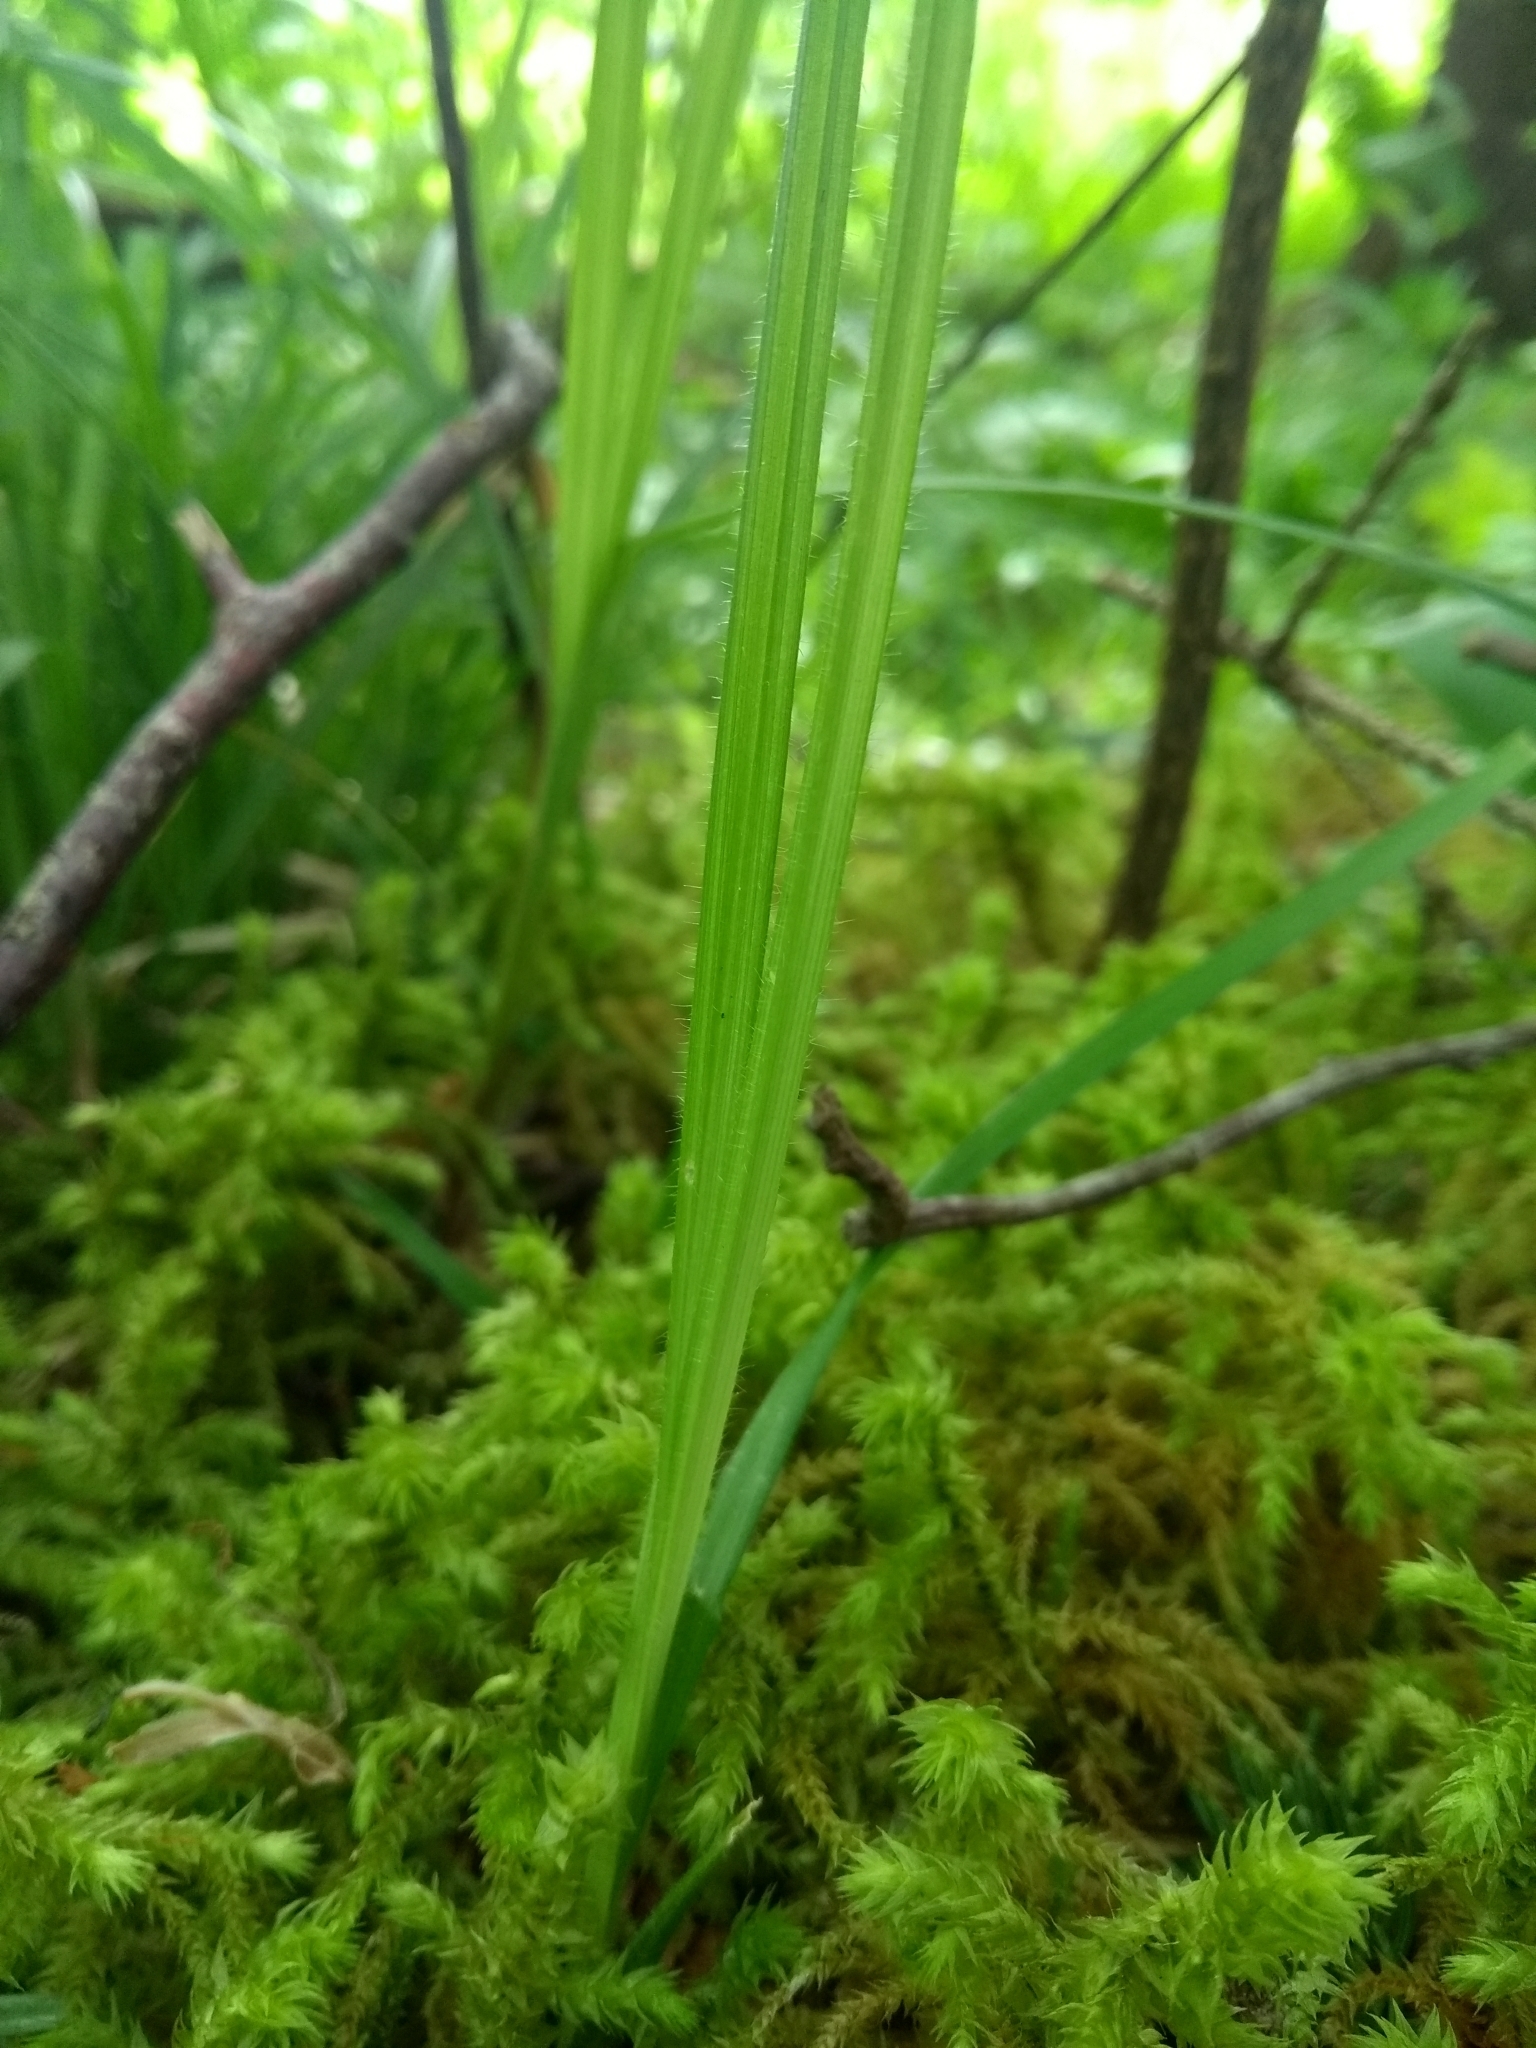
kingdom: Plantae
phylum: Tracheophyta
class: Liliopsida
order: Poales
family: Cyperaceae
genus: Carex
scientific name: Carex hirtifolia
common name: Hairy sedge
